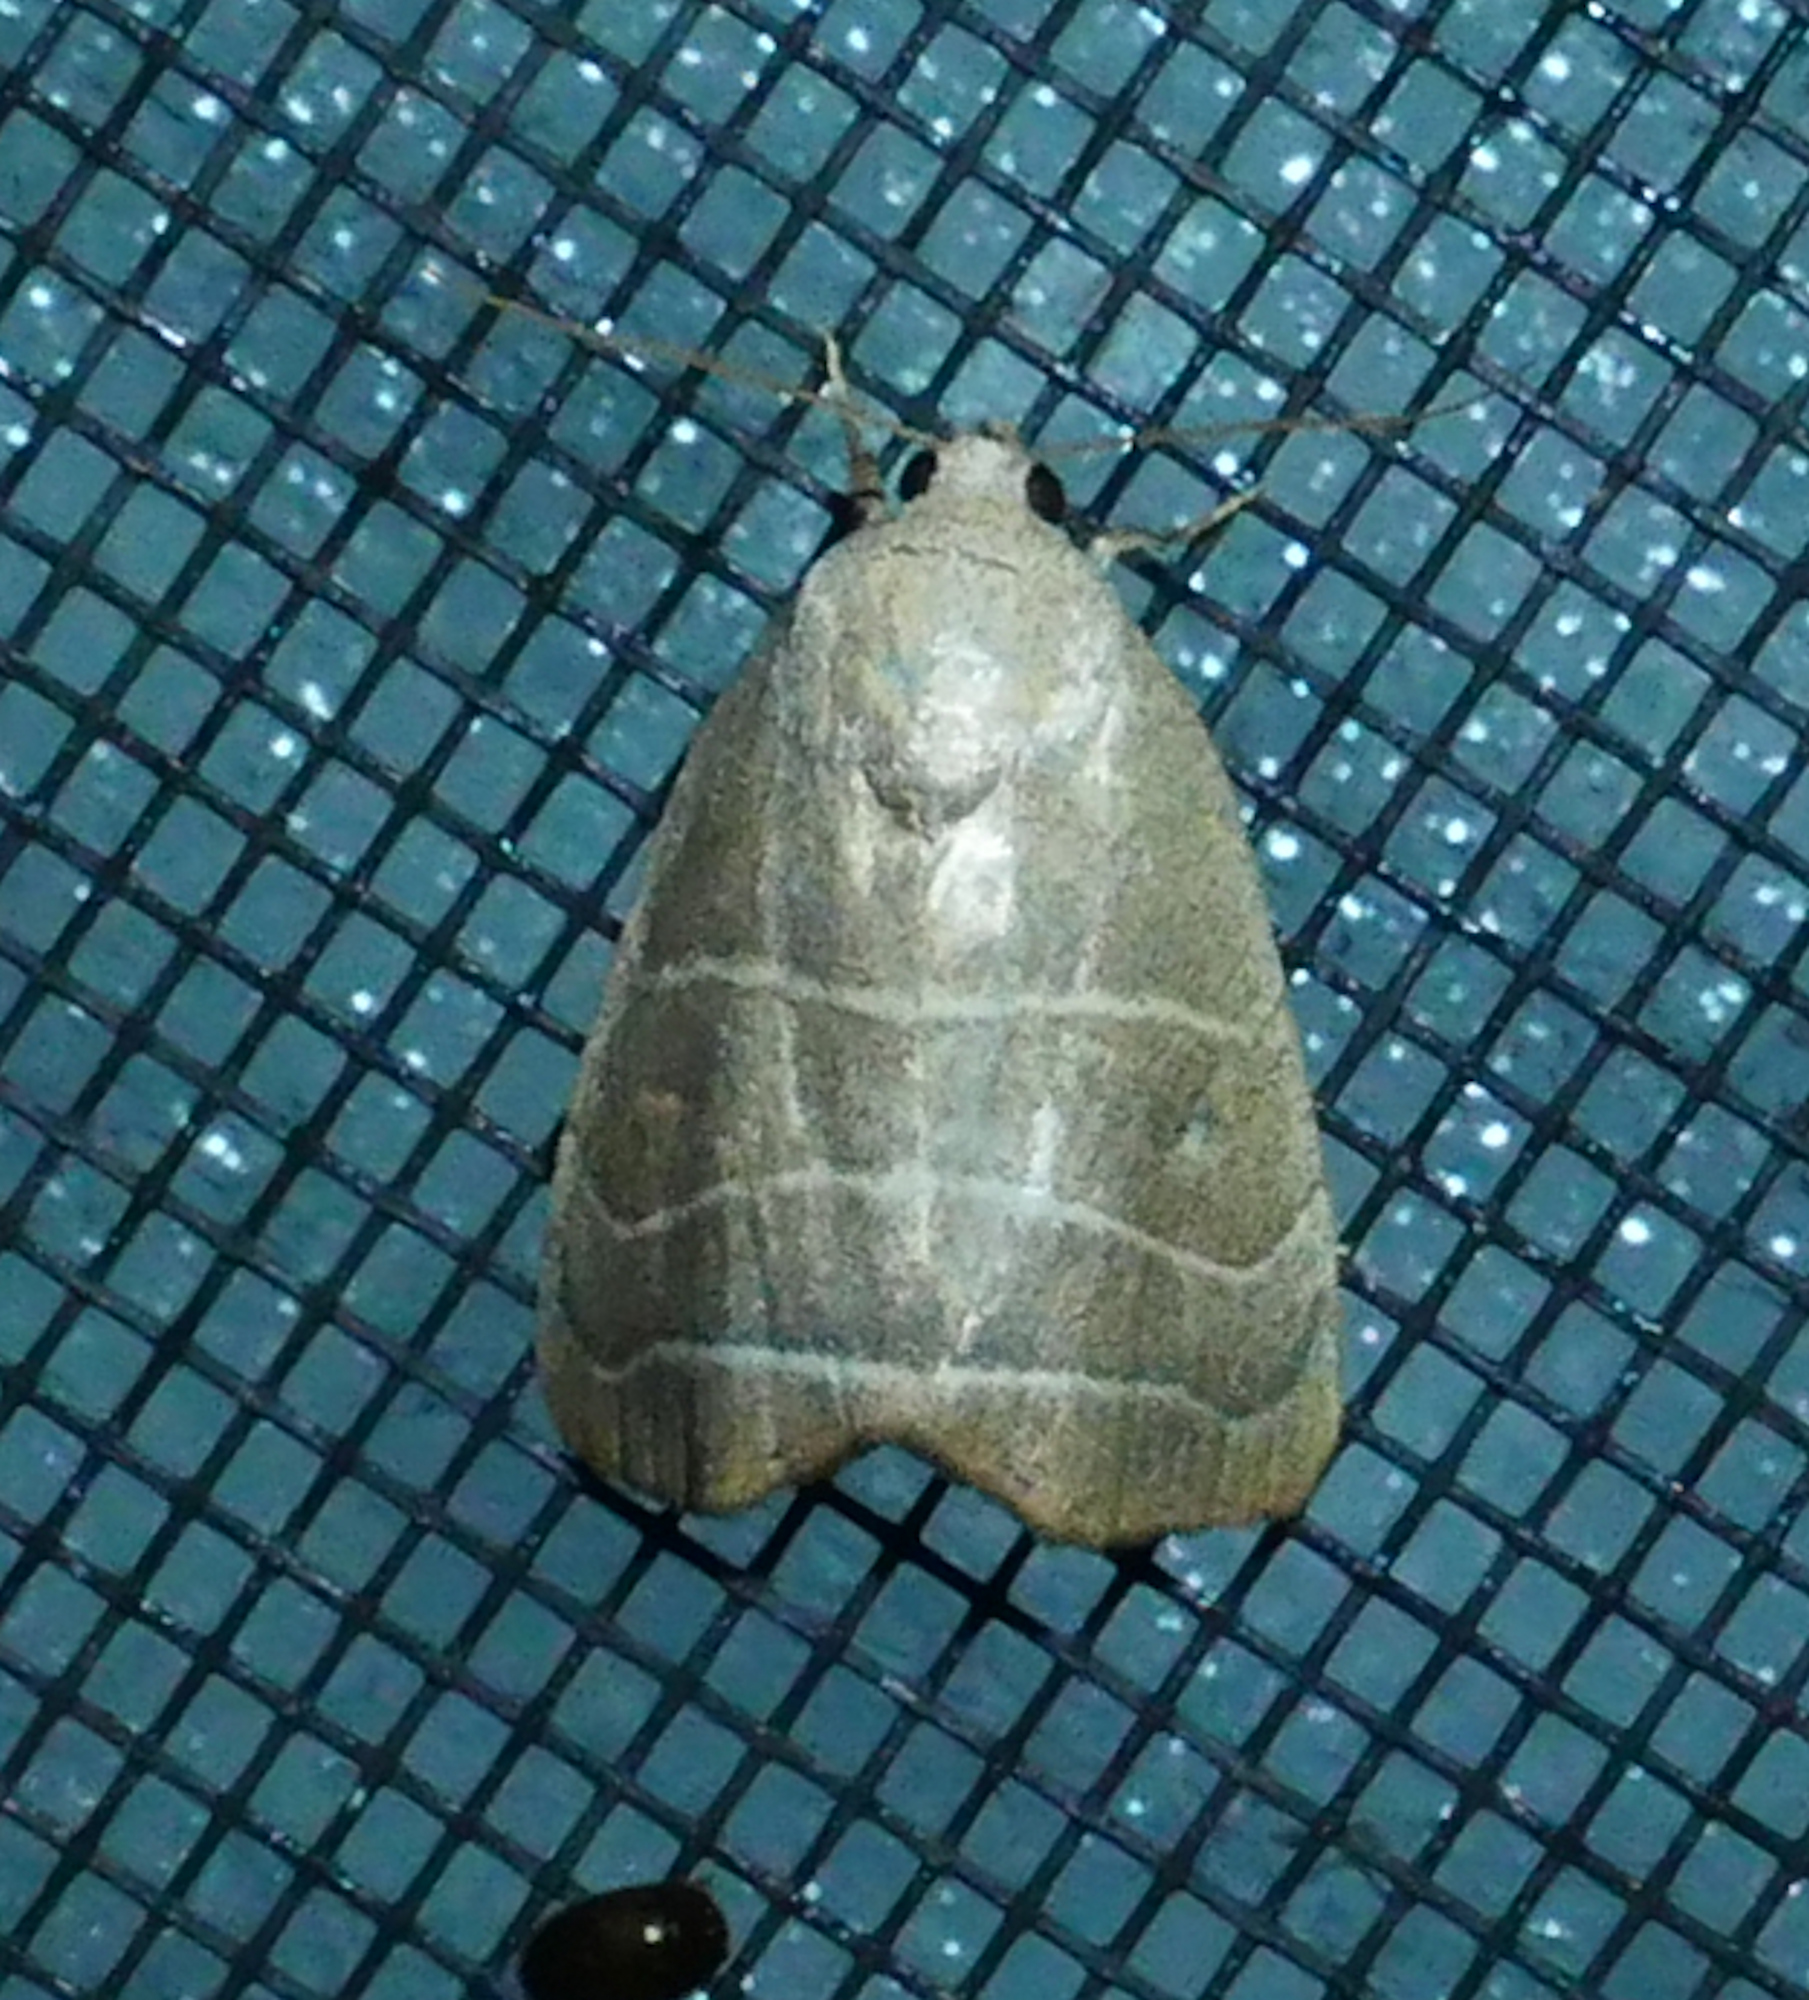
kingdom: Animalia
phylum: Arthropoda
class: Insecta
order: Lepidoptera
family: Noctuidae
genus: Bagisara
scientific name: Bagisara rectifascia
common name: Straight lined mallow moth
